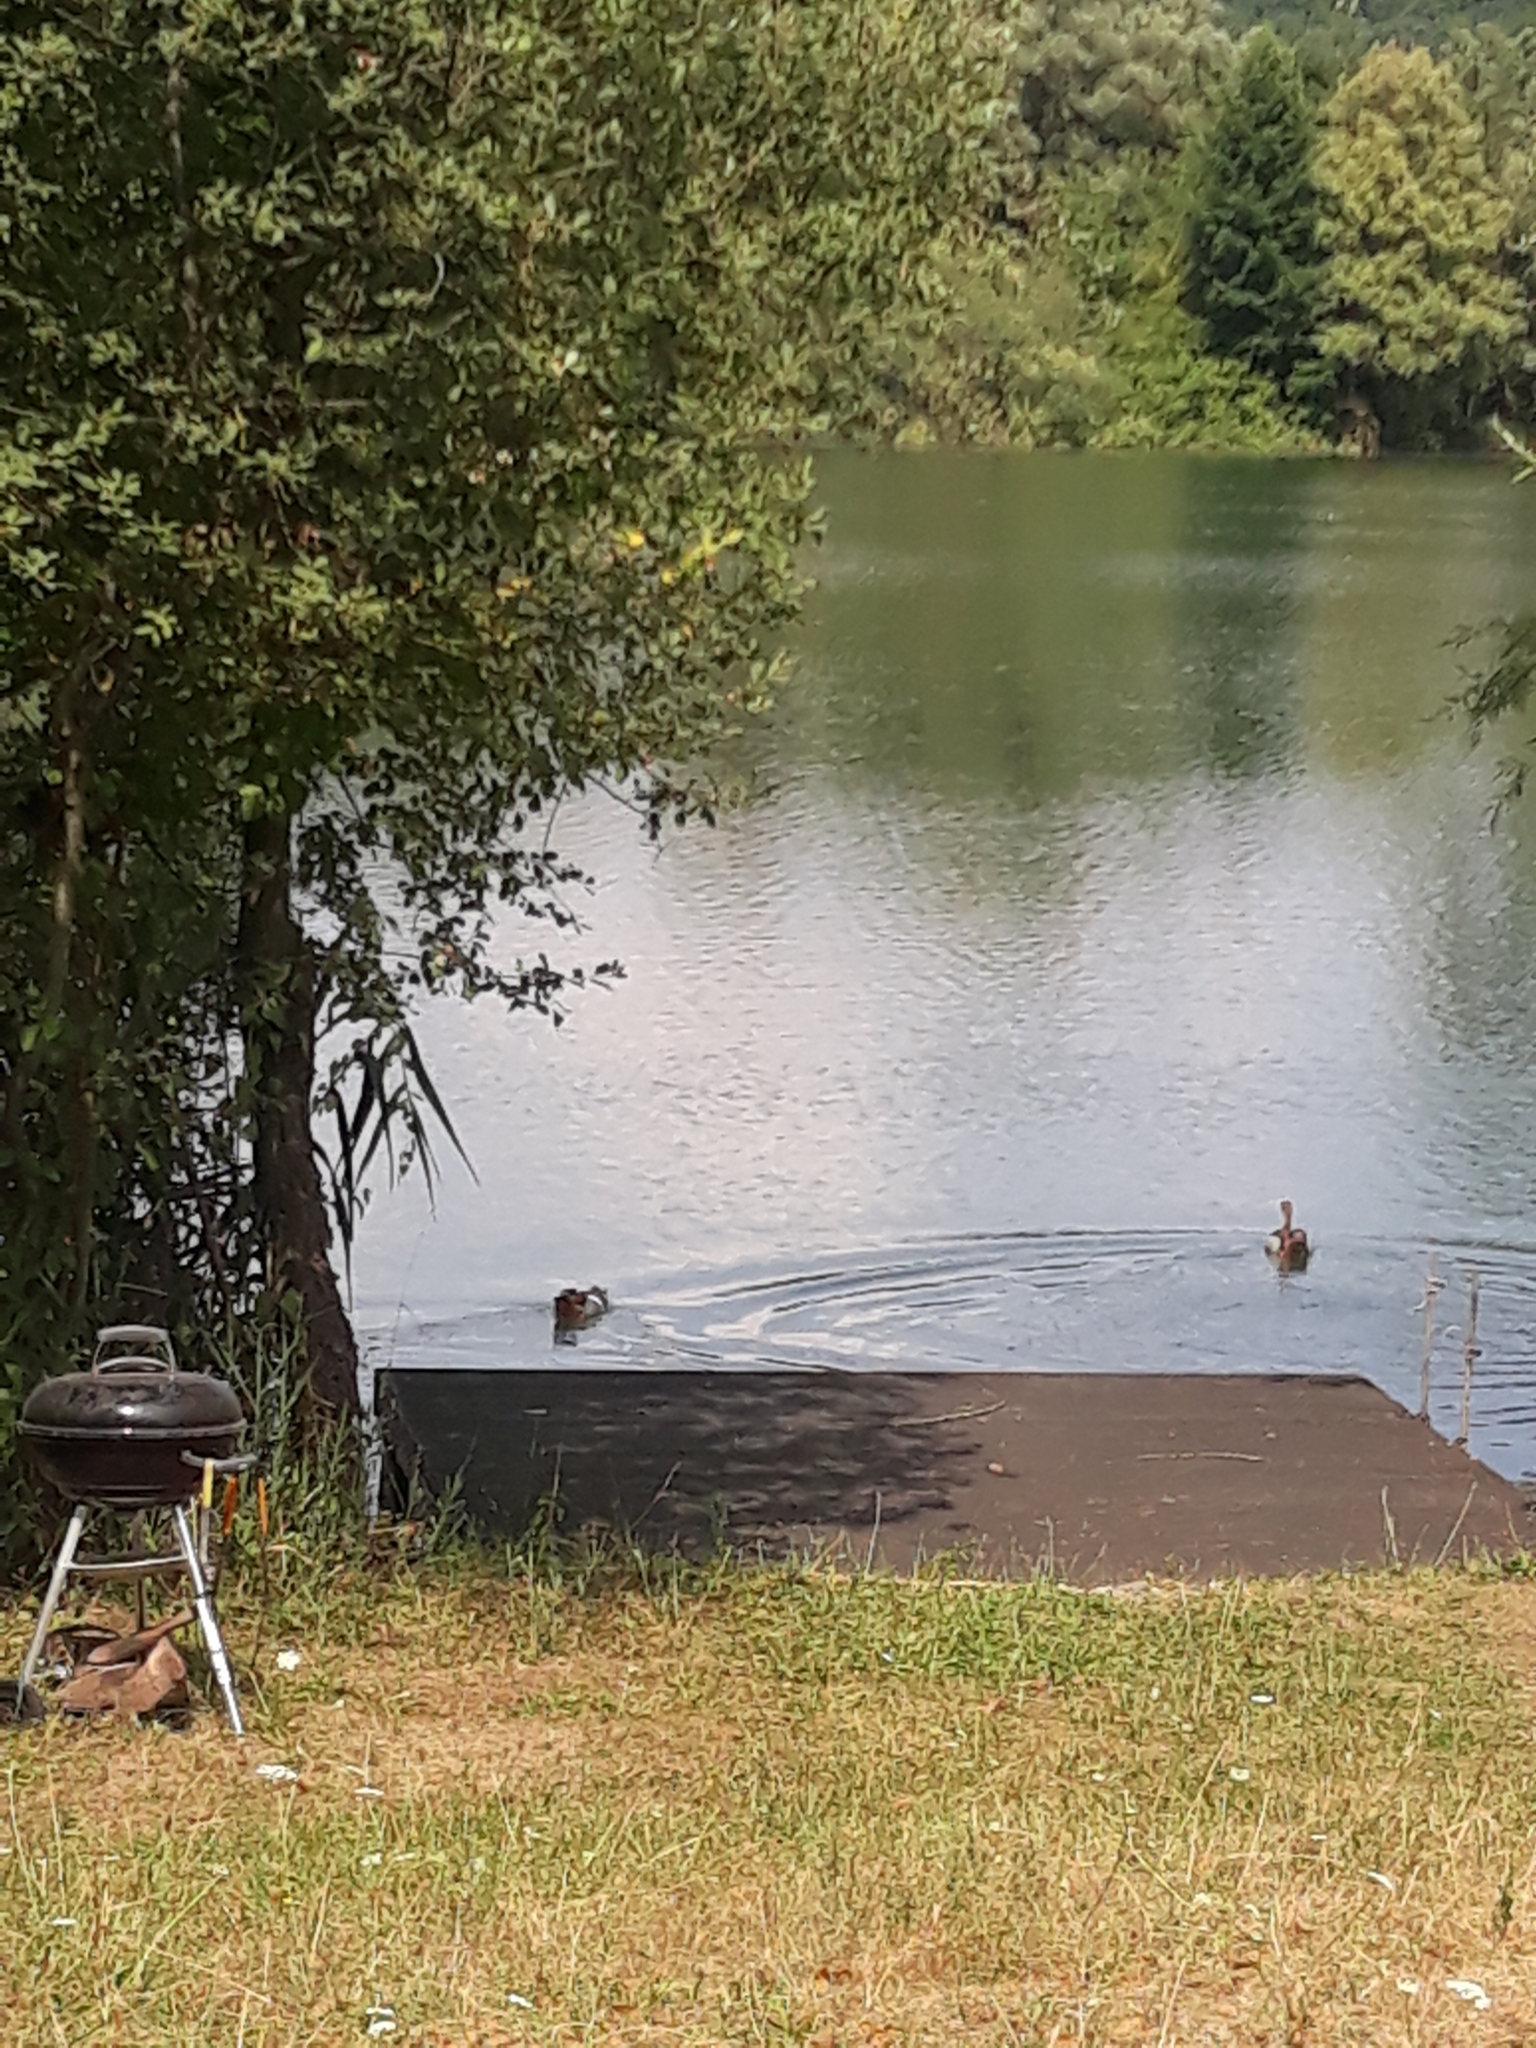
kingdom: Animalia
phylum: Chordata
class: Aves
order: Anseriformes
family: Anatidae
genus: Alopochen
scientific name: Alopochen aegyptiaca
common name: Egyptian goose
